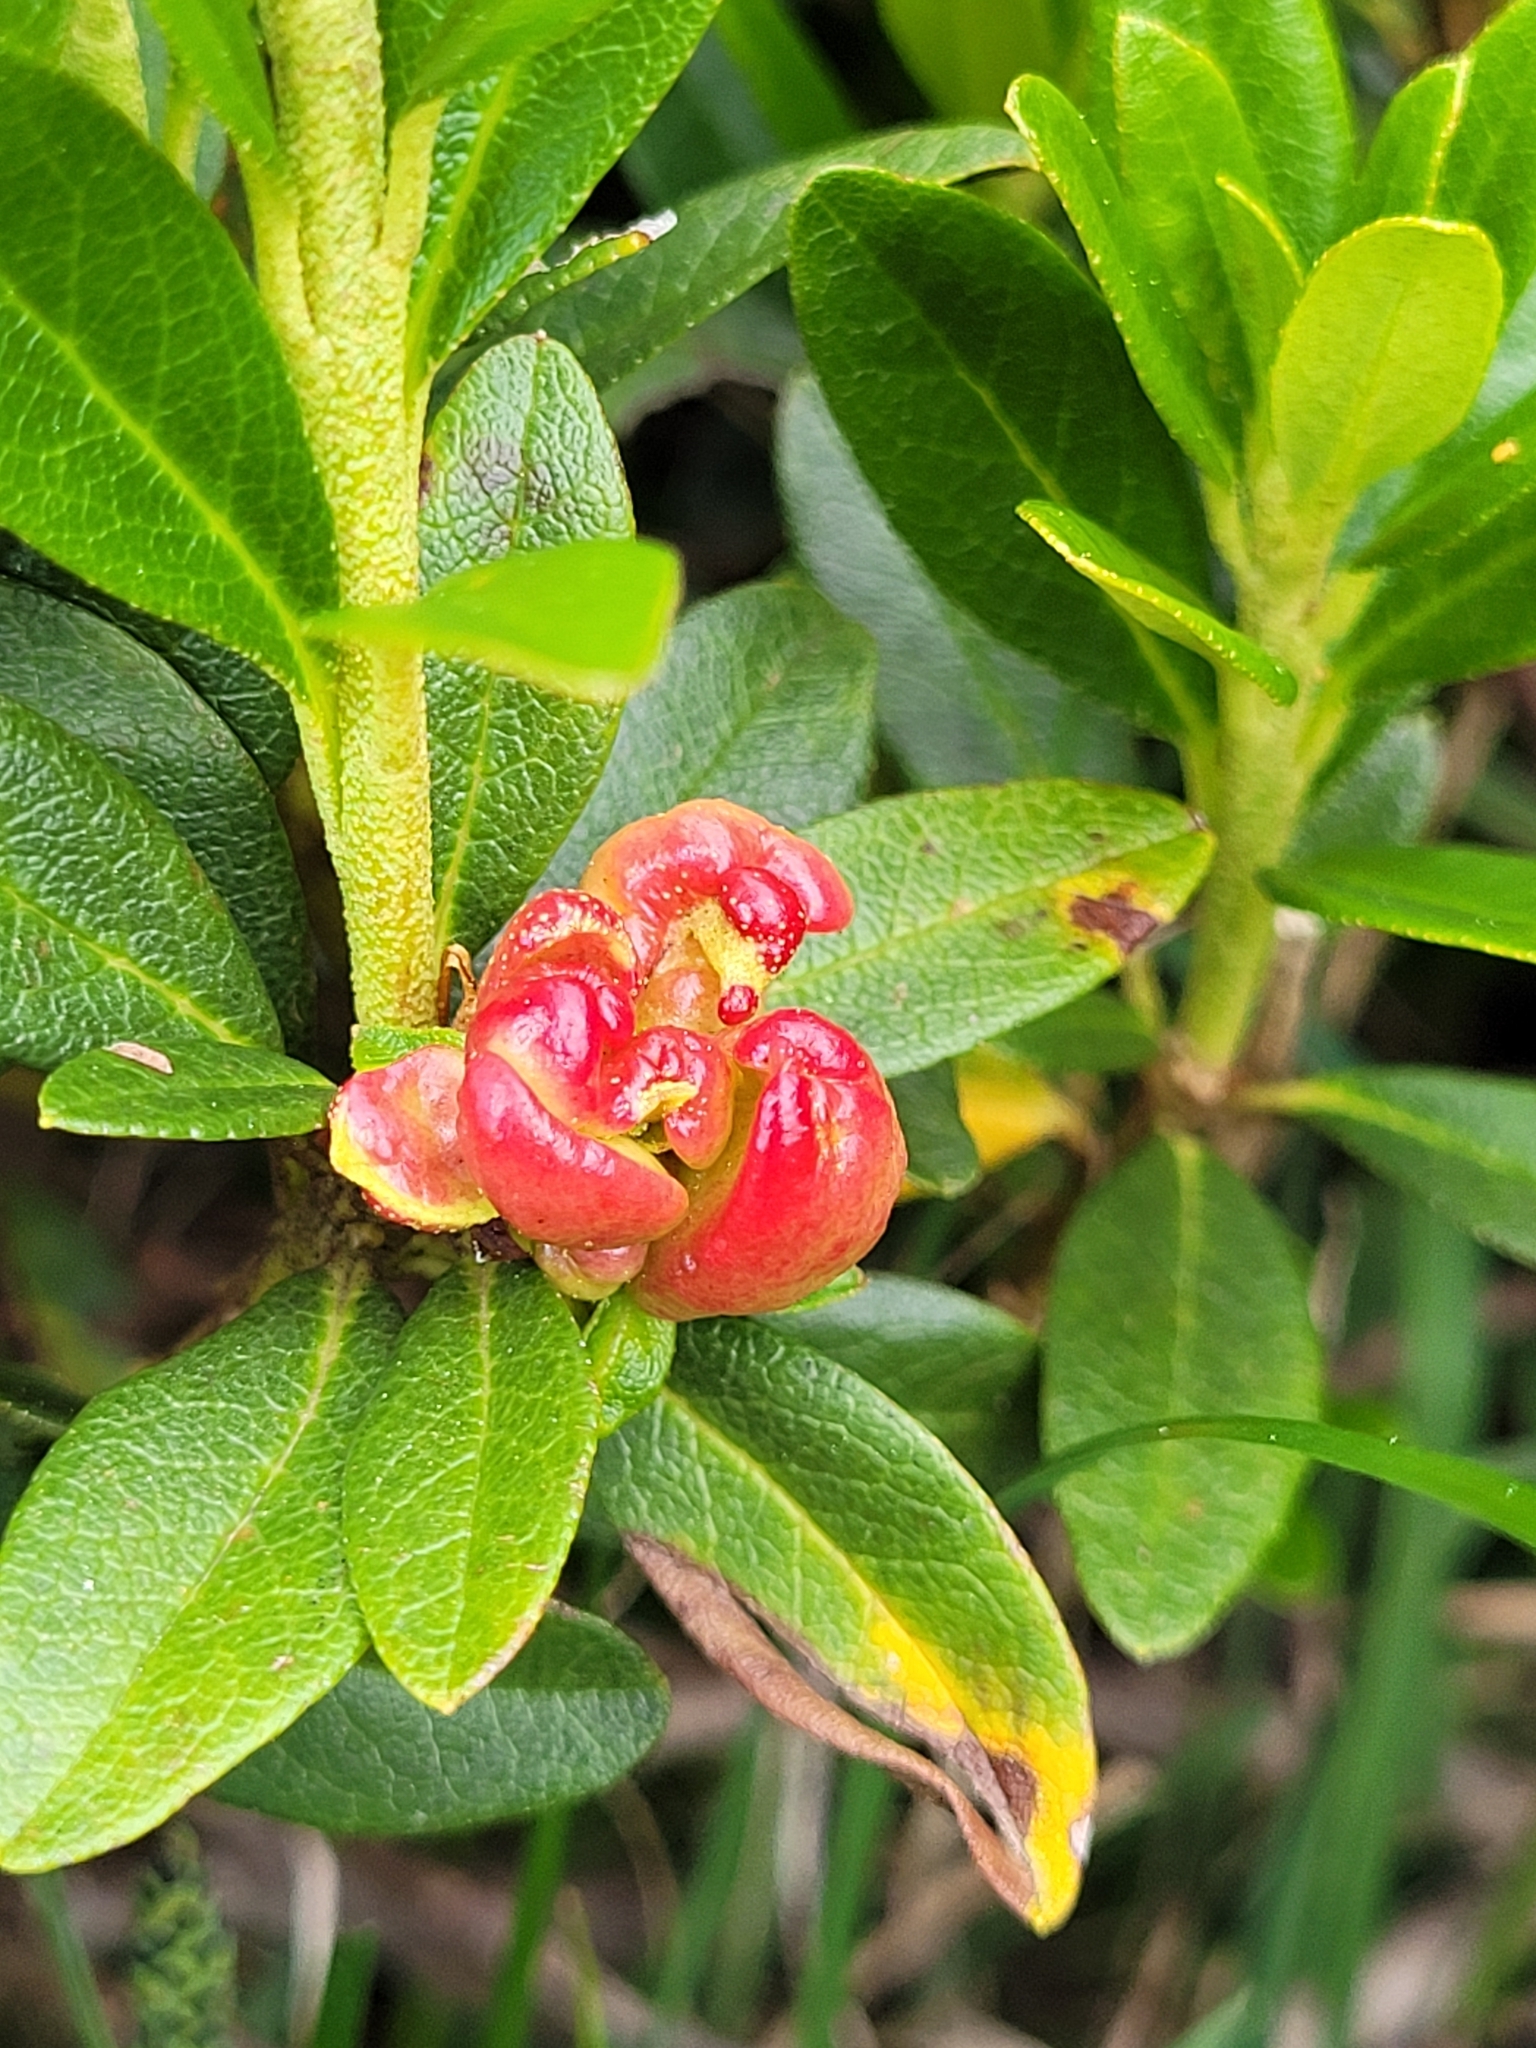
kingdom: Fungi
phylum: Basidiomycota
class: Exobasidiomycetes
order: Exobasidiales
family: Exobasidiaceae
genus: Exobasidium
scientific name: Exobasidium rhododendri
